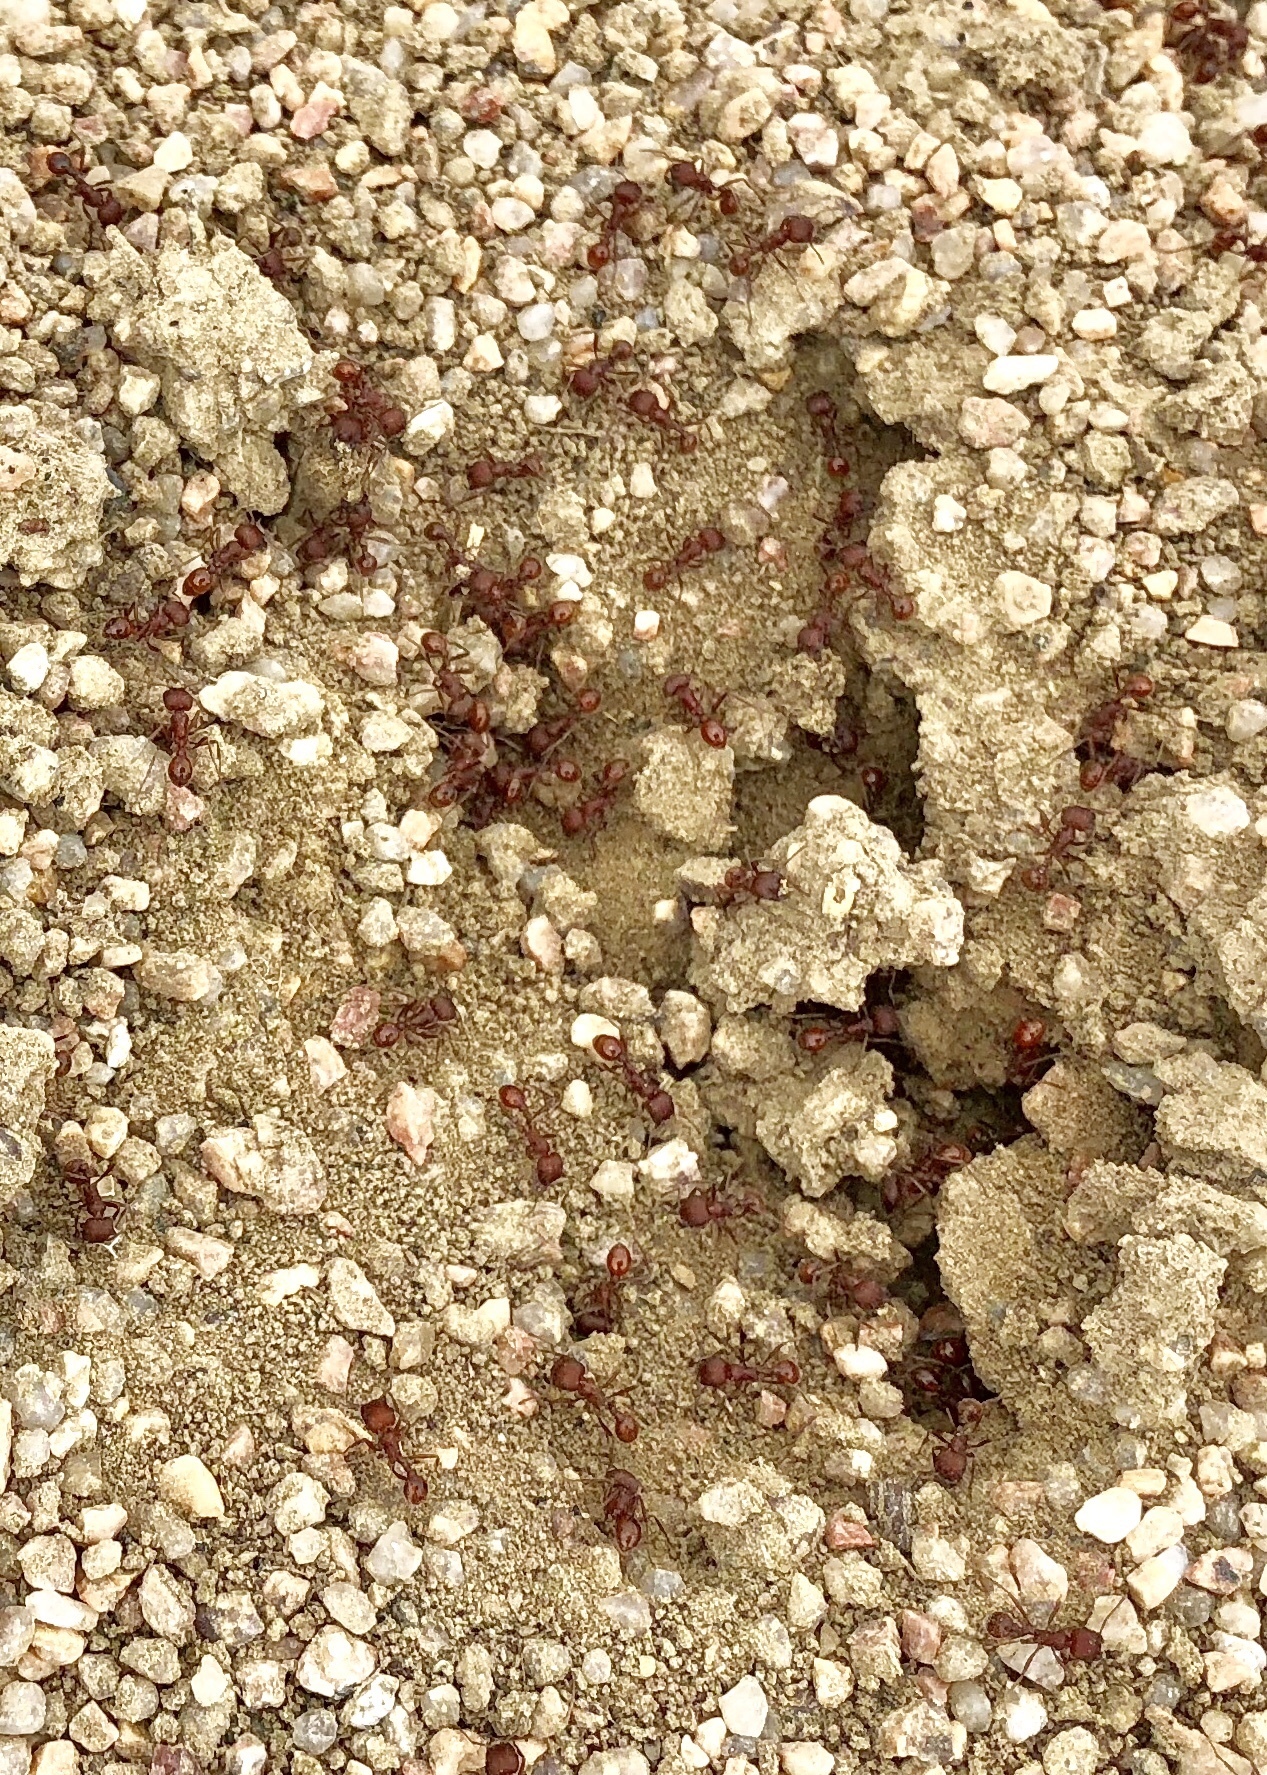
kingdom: Animalia
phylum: Arthropoda
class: Insecta
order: Hymenoptera
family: Formicidae
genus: Pogonomyrmex
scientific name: Pogonomyrmex occidentalis
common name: Western harvester ant
